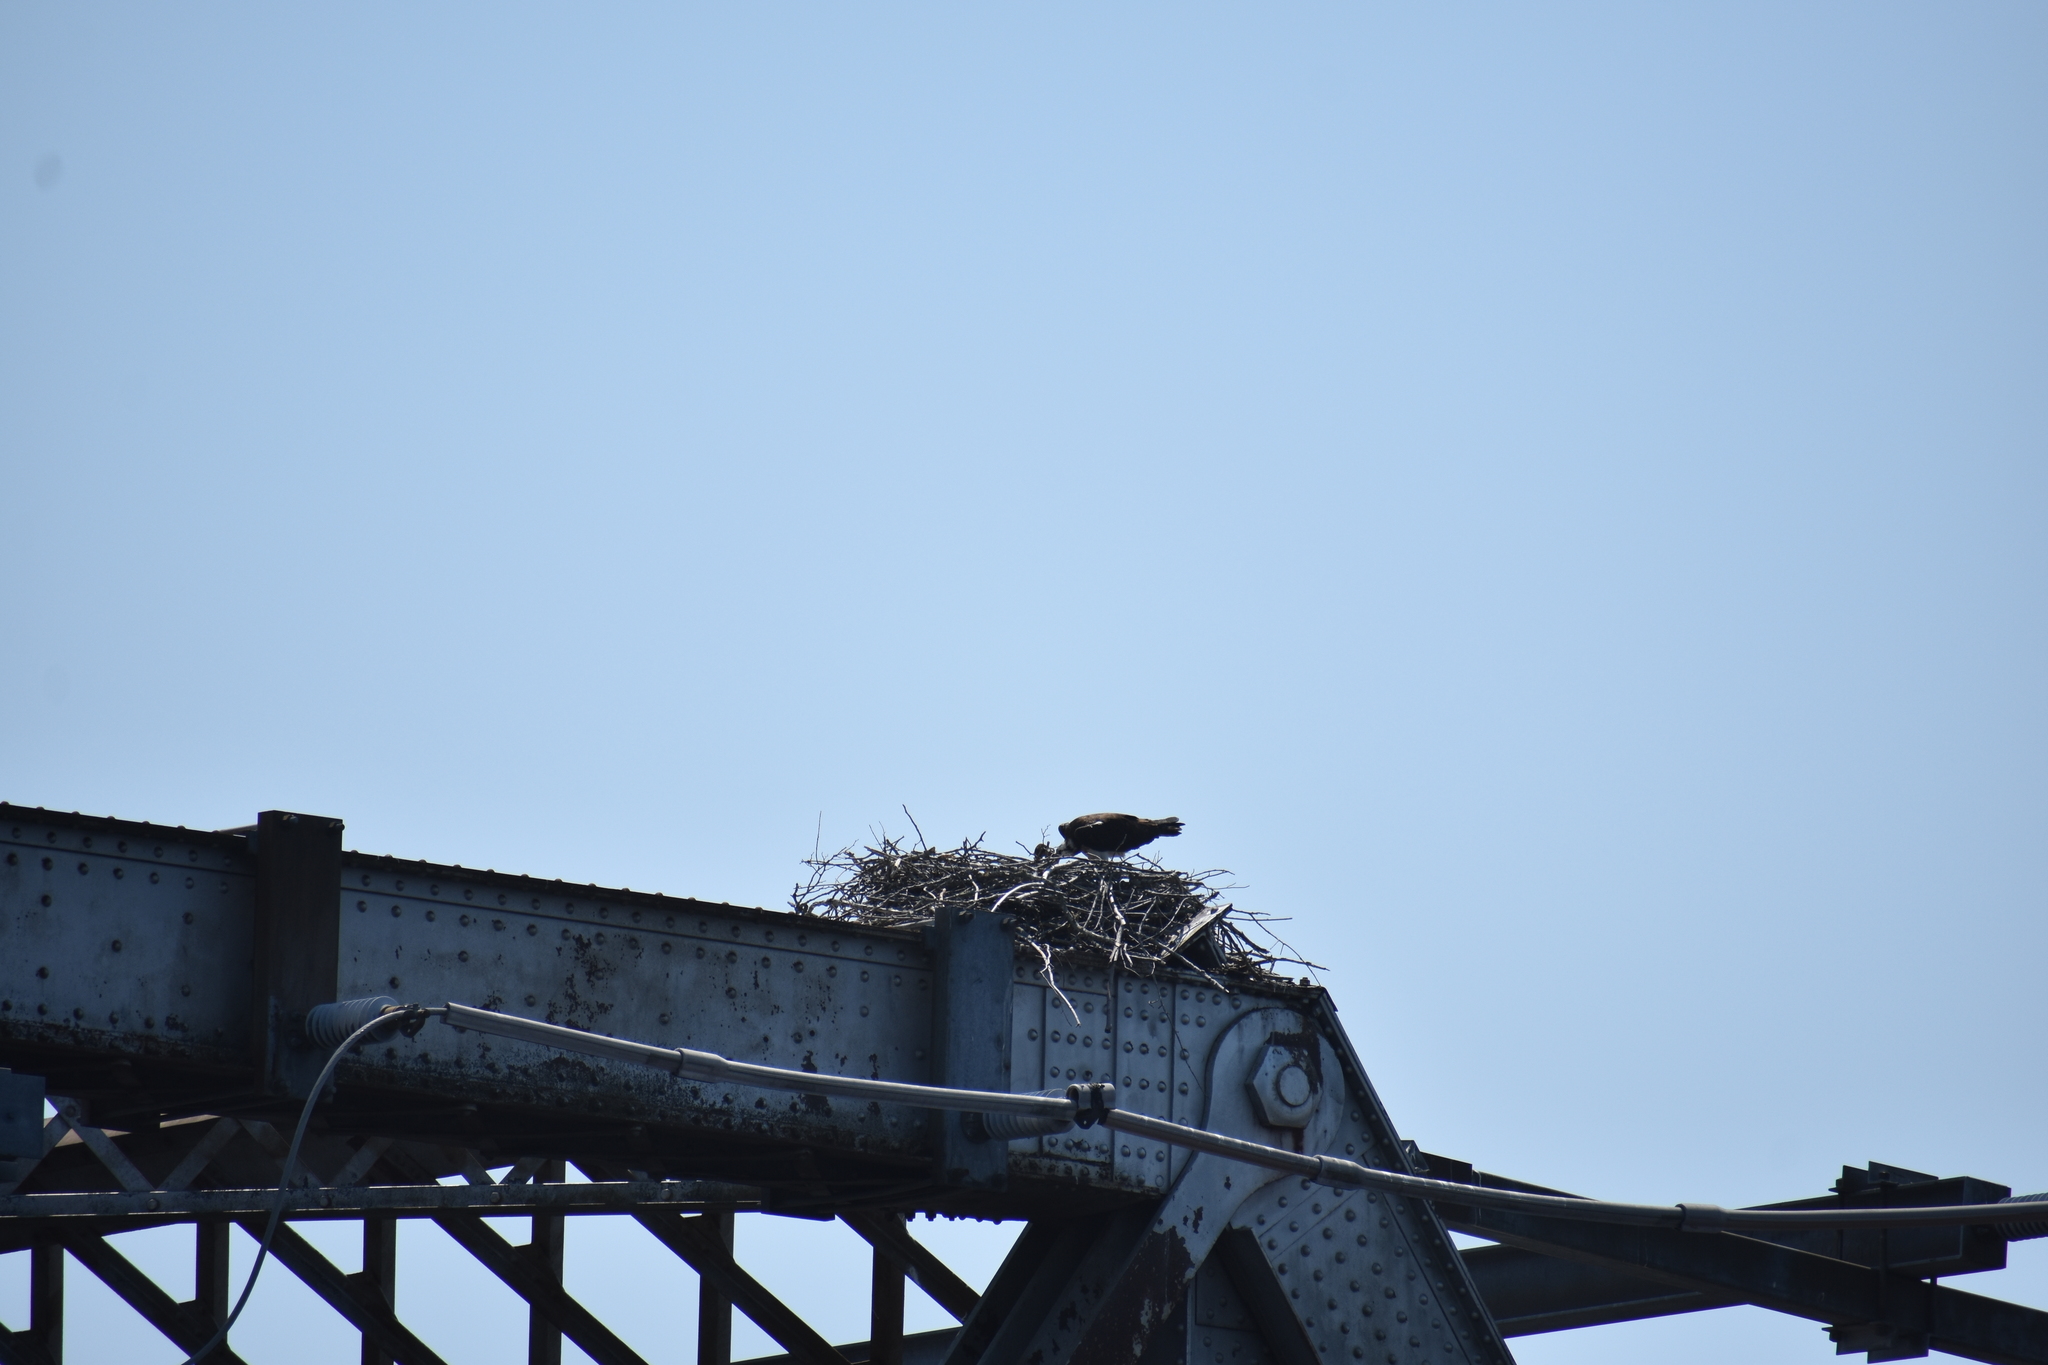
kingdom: Animalia
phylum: Chordata
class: Aves
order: Accipitriformes
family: Pandionidae
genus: Pandion
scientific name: Pandion haliaetus
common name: Osprey
